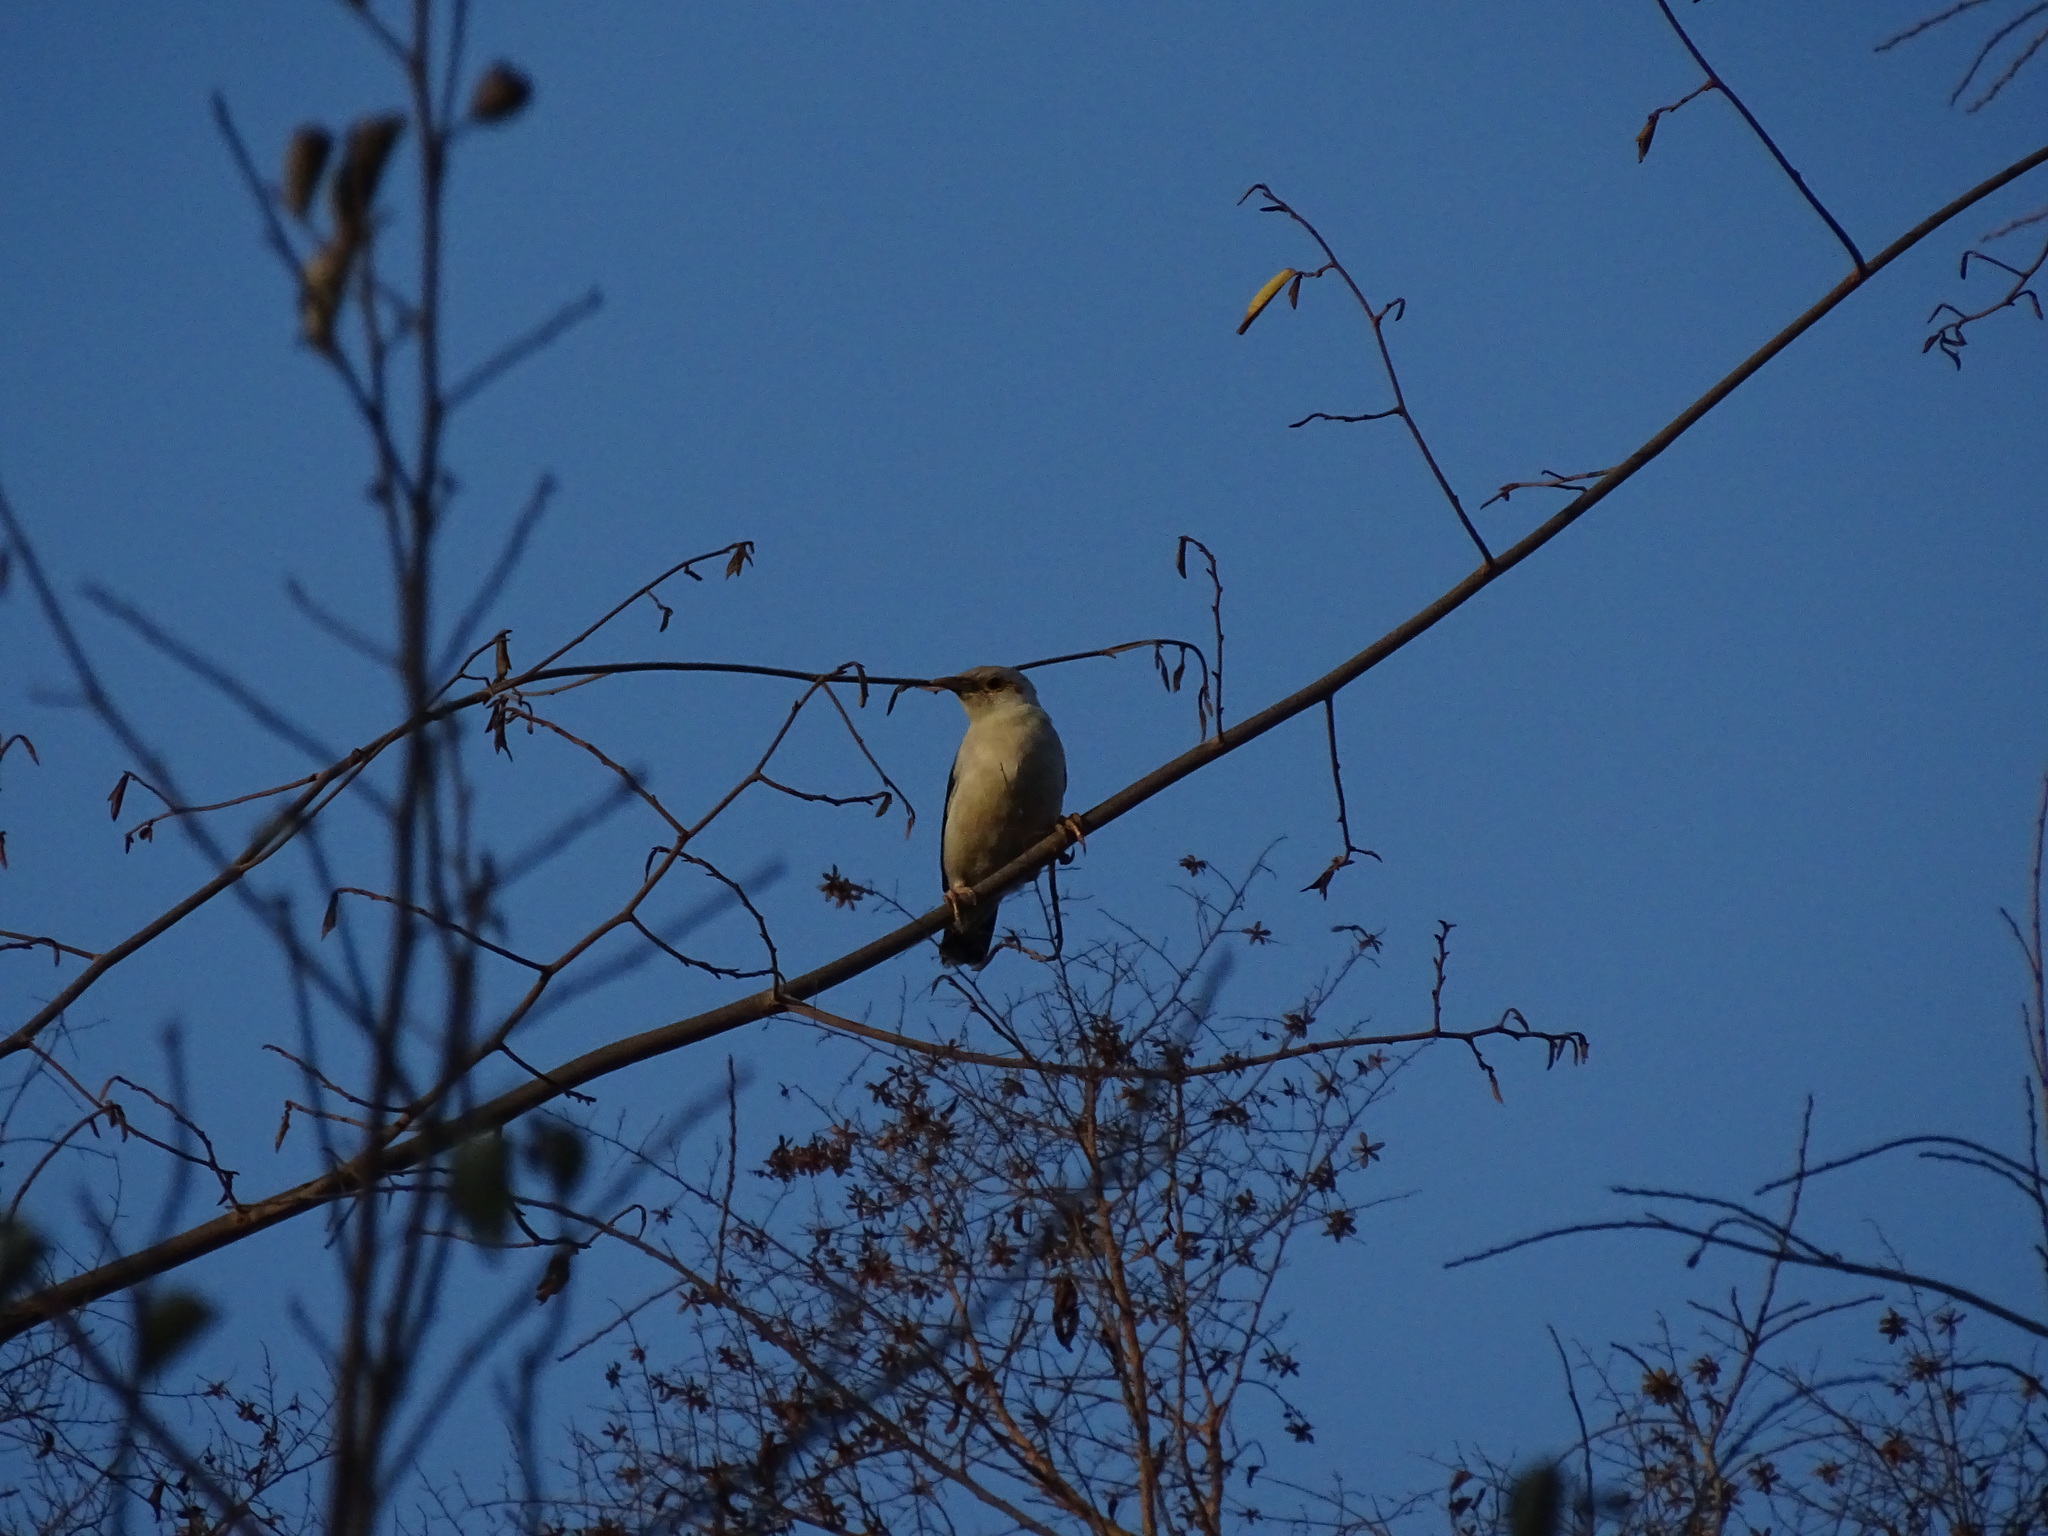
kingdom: Animalia
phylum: Chordata
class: Aves
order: Passeriformes
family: Sturnidae
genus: Acridotheres
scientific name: Acridotheres melanopterus
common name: Black-winged starling
